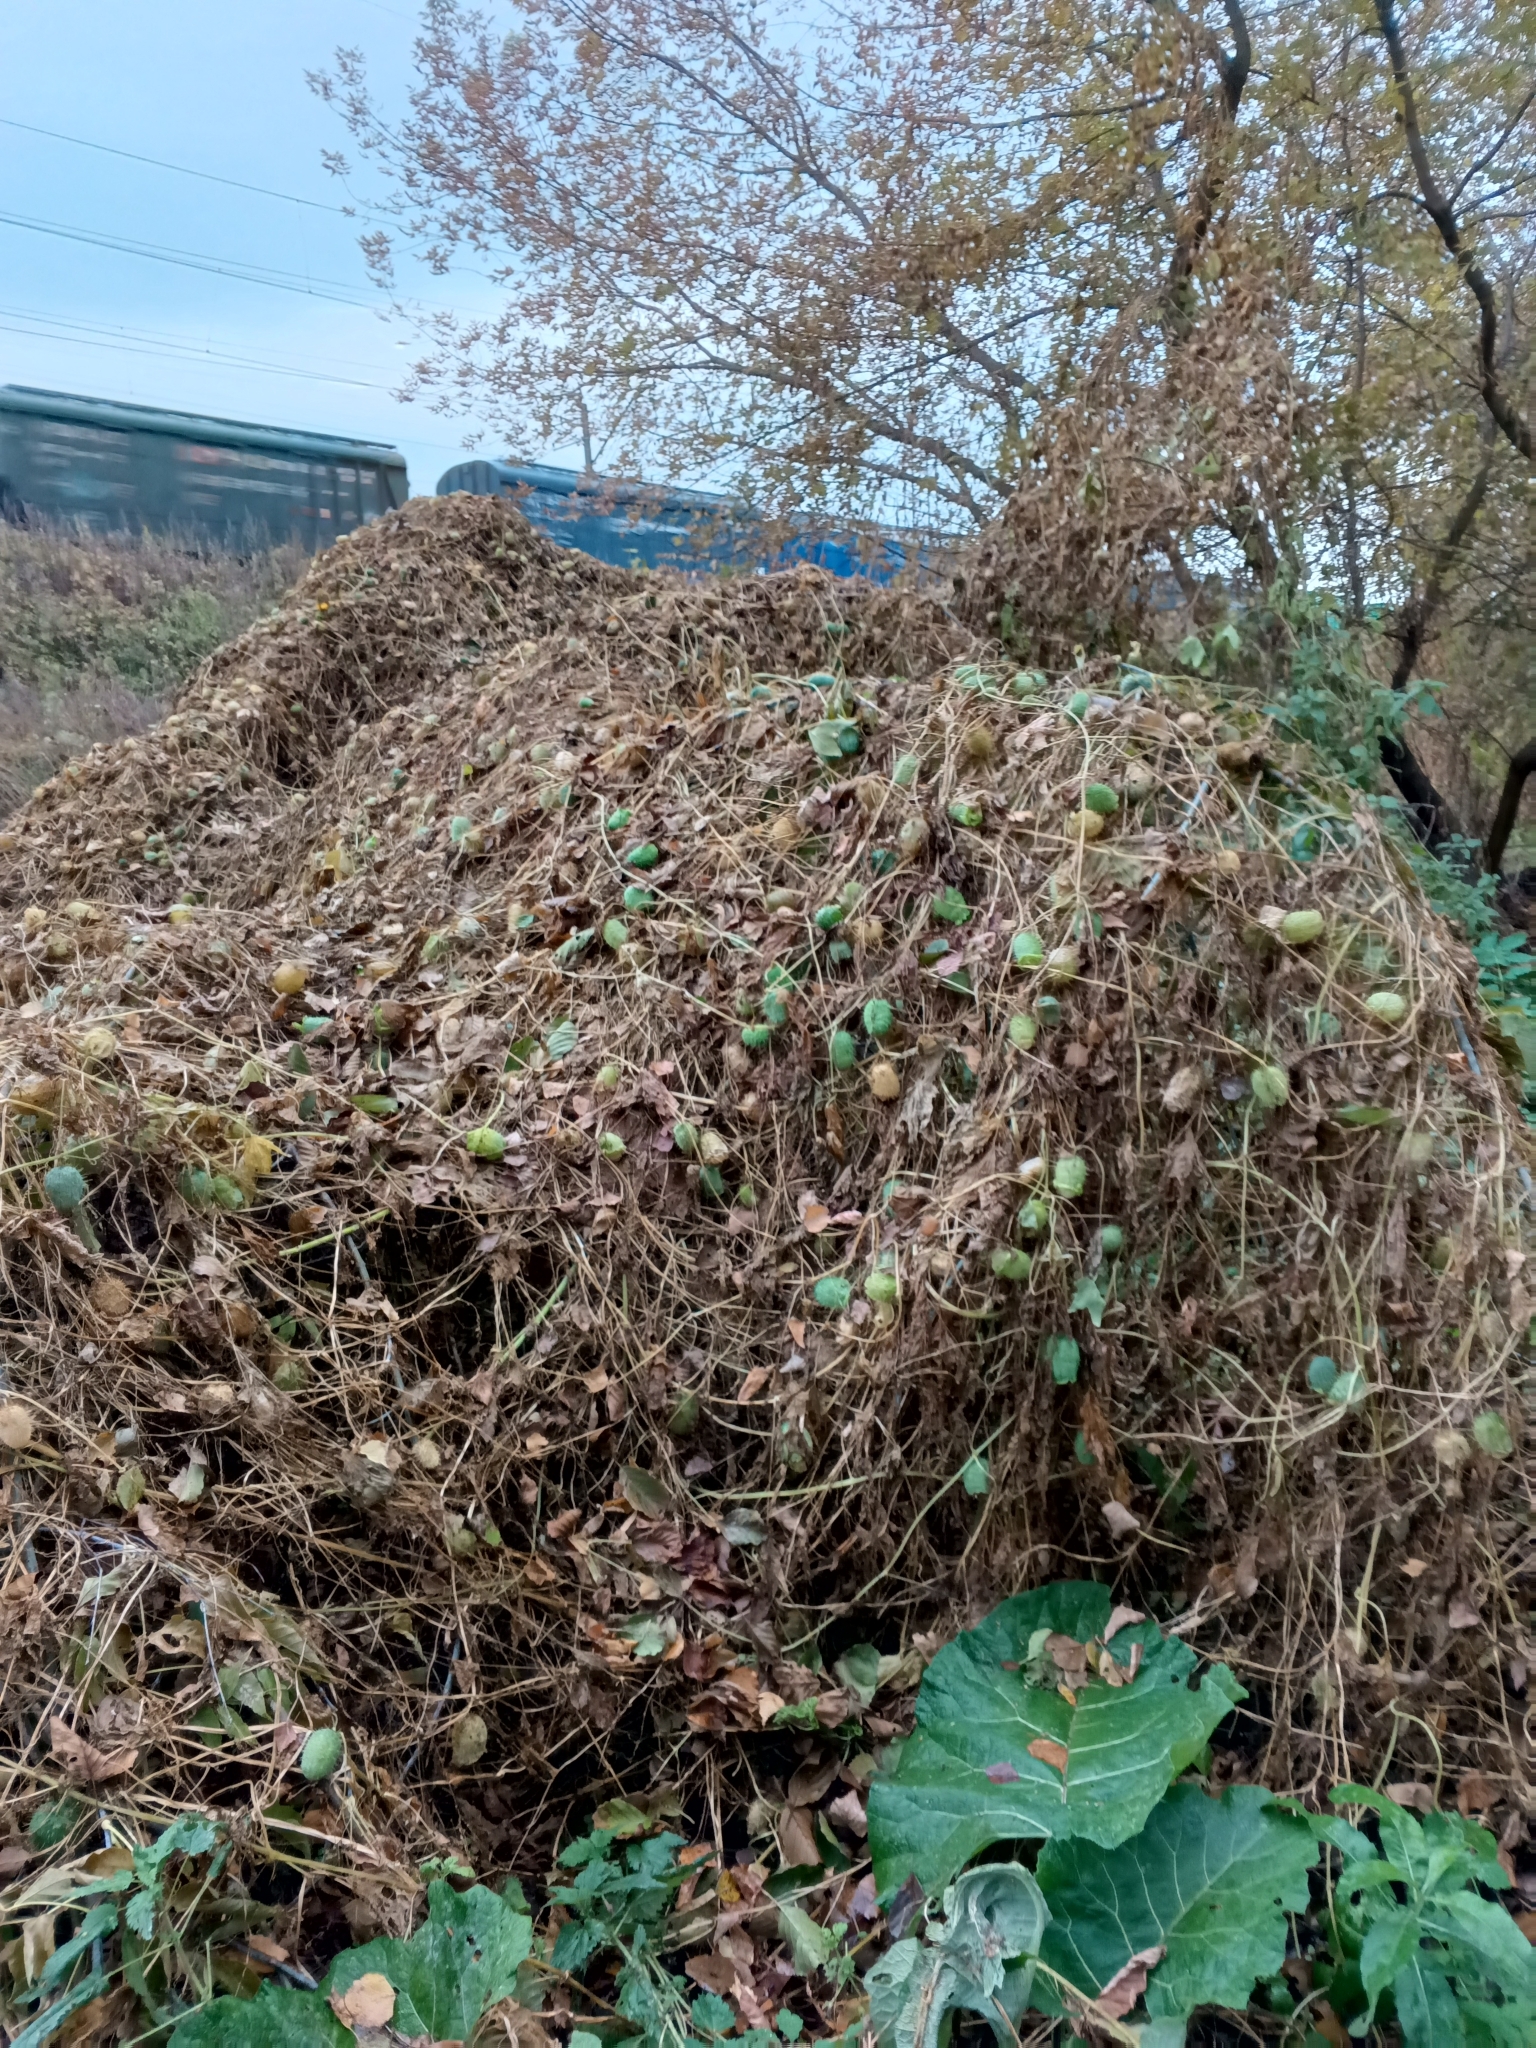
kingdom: Plantae
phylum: Tracheophyta
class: Magnoliopsida
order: Cucurbitales
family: Cucurbitaceae
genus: Echinocystis
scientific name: Echinocystis lobata
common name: Wild cucumber
